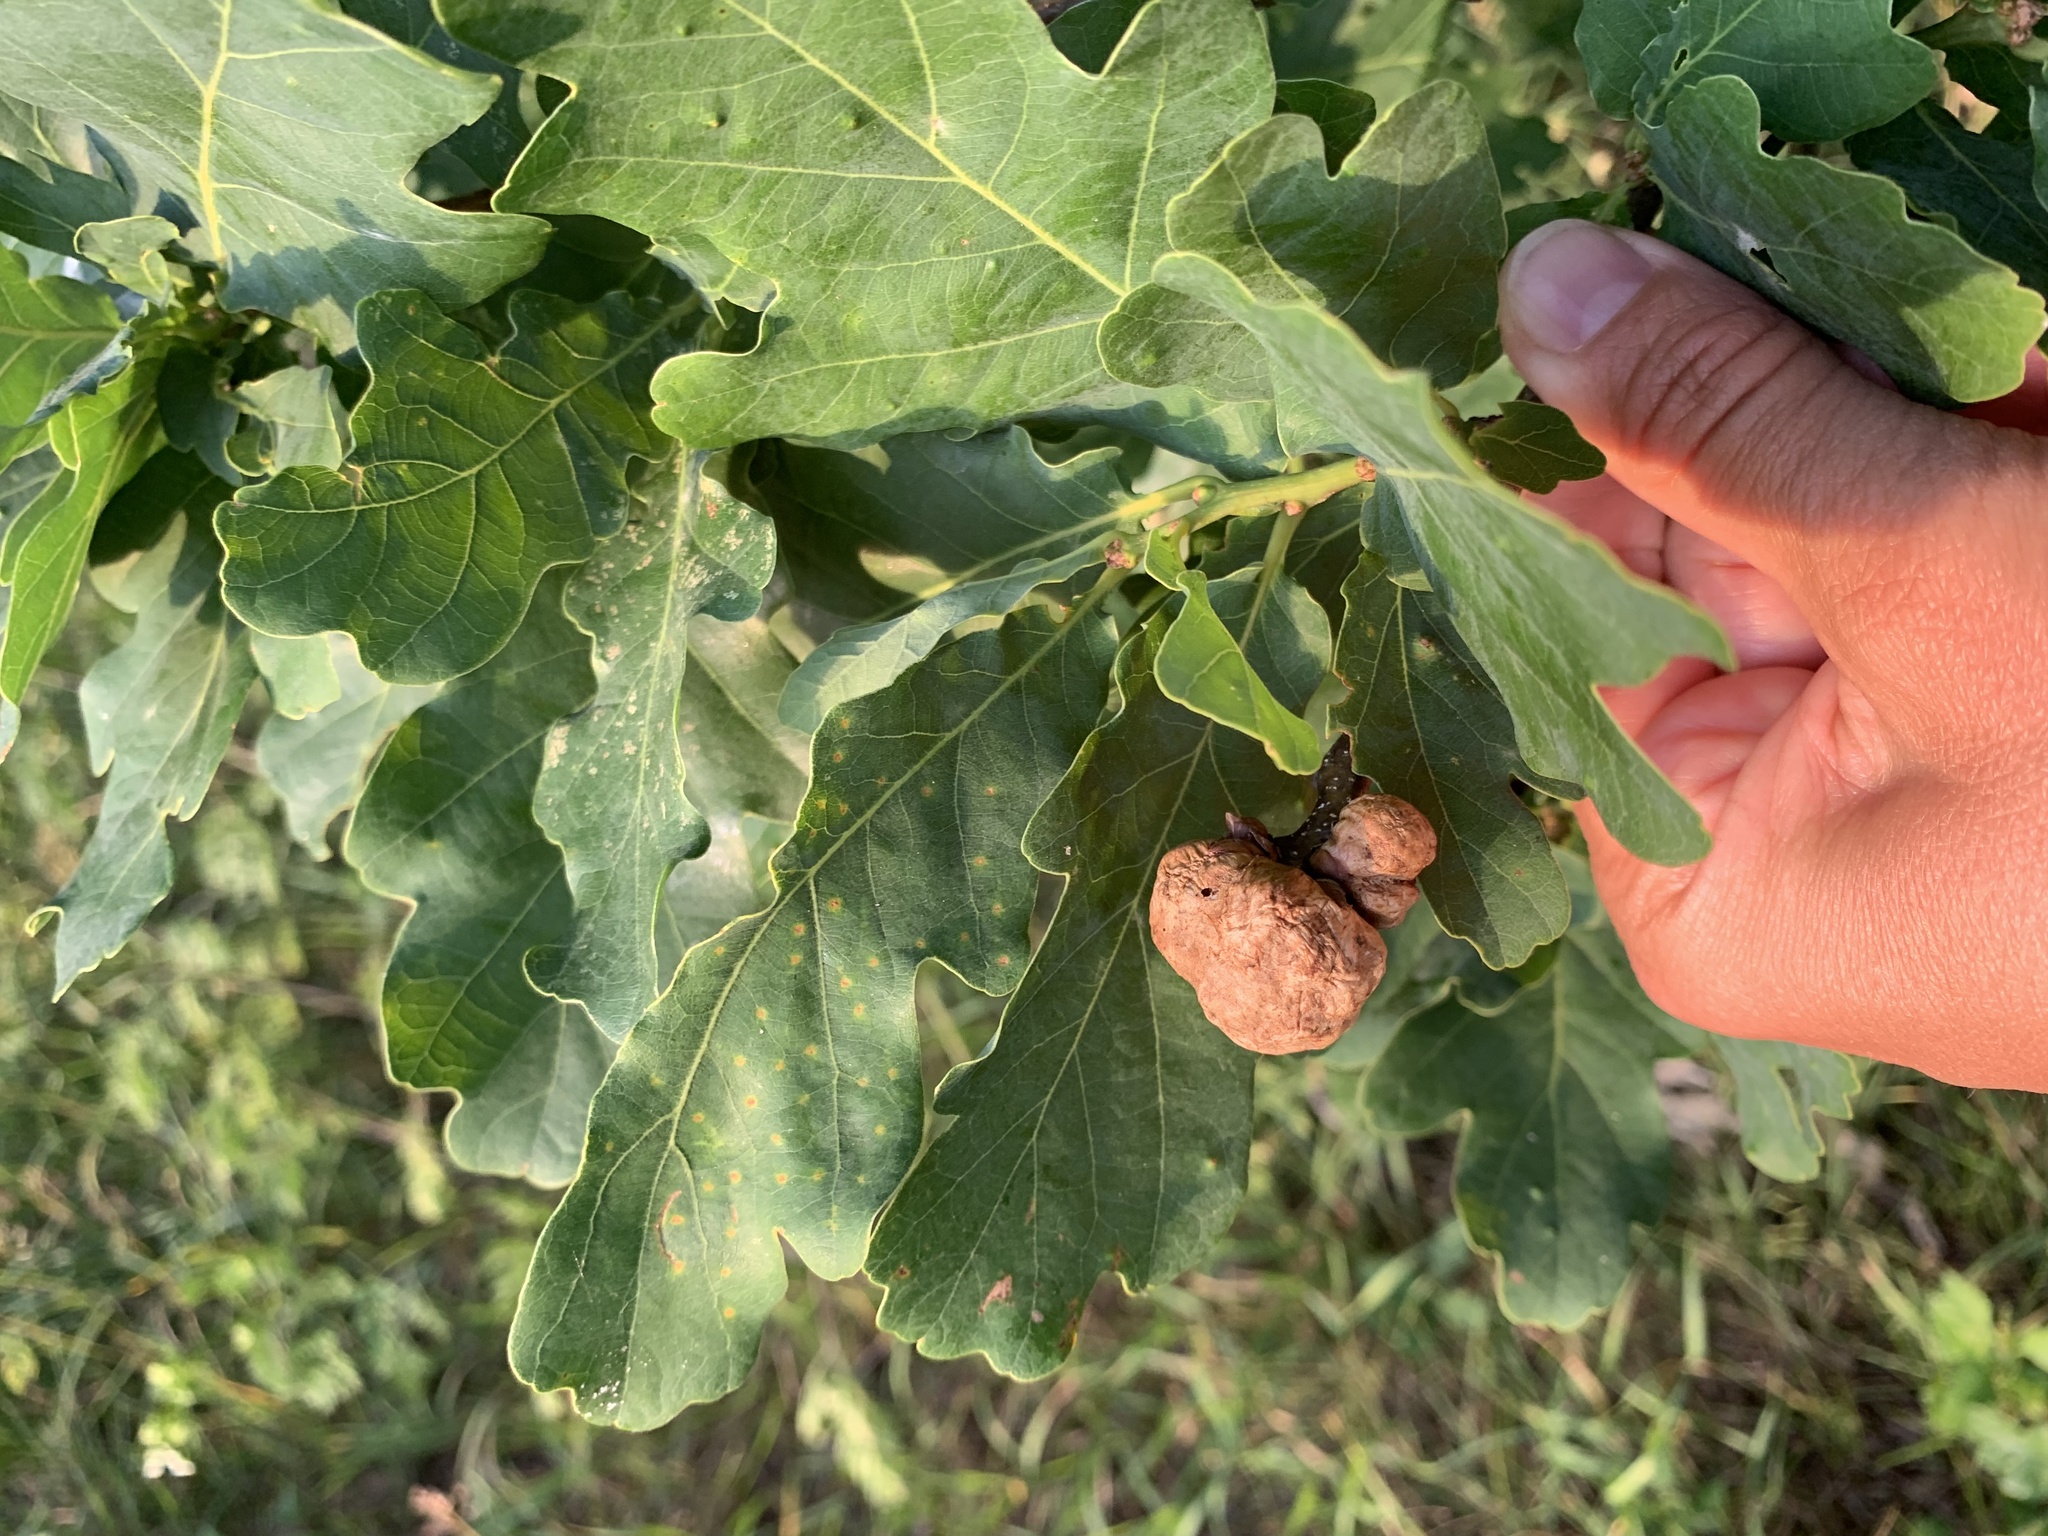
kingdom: Animalia
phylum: Arthropoda
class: Insecta
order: Hymenoptera
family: Cynipidae
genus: Biorhiza
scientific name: Biorhiza pallida
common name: Oak apple
